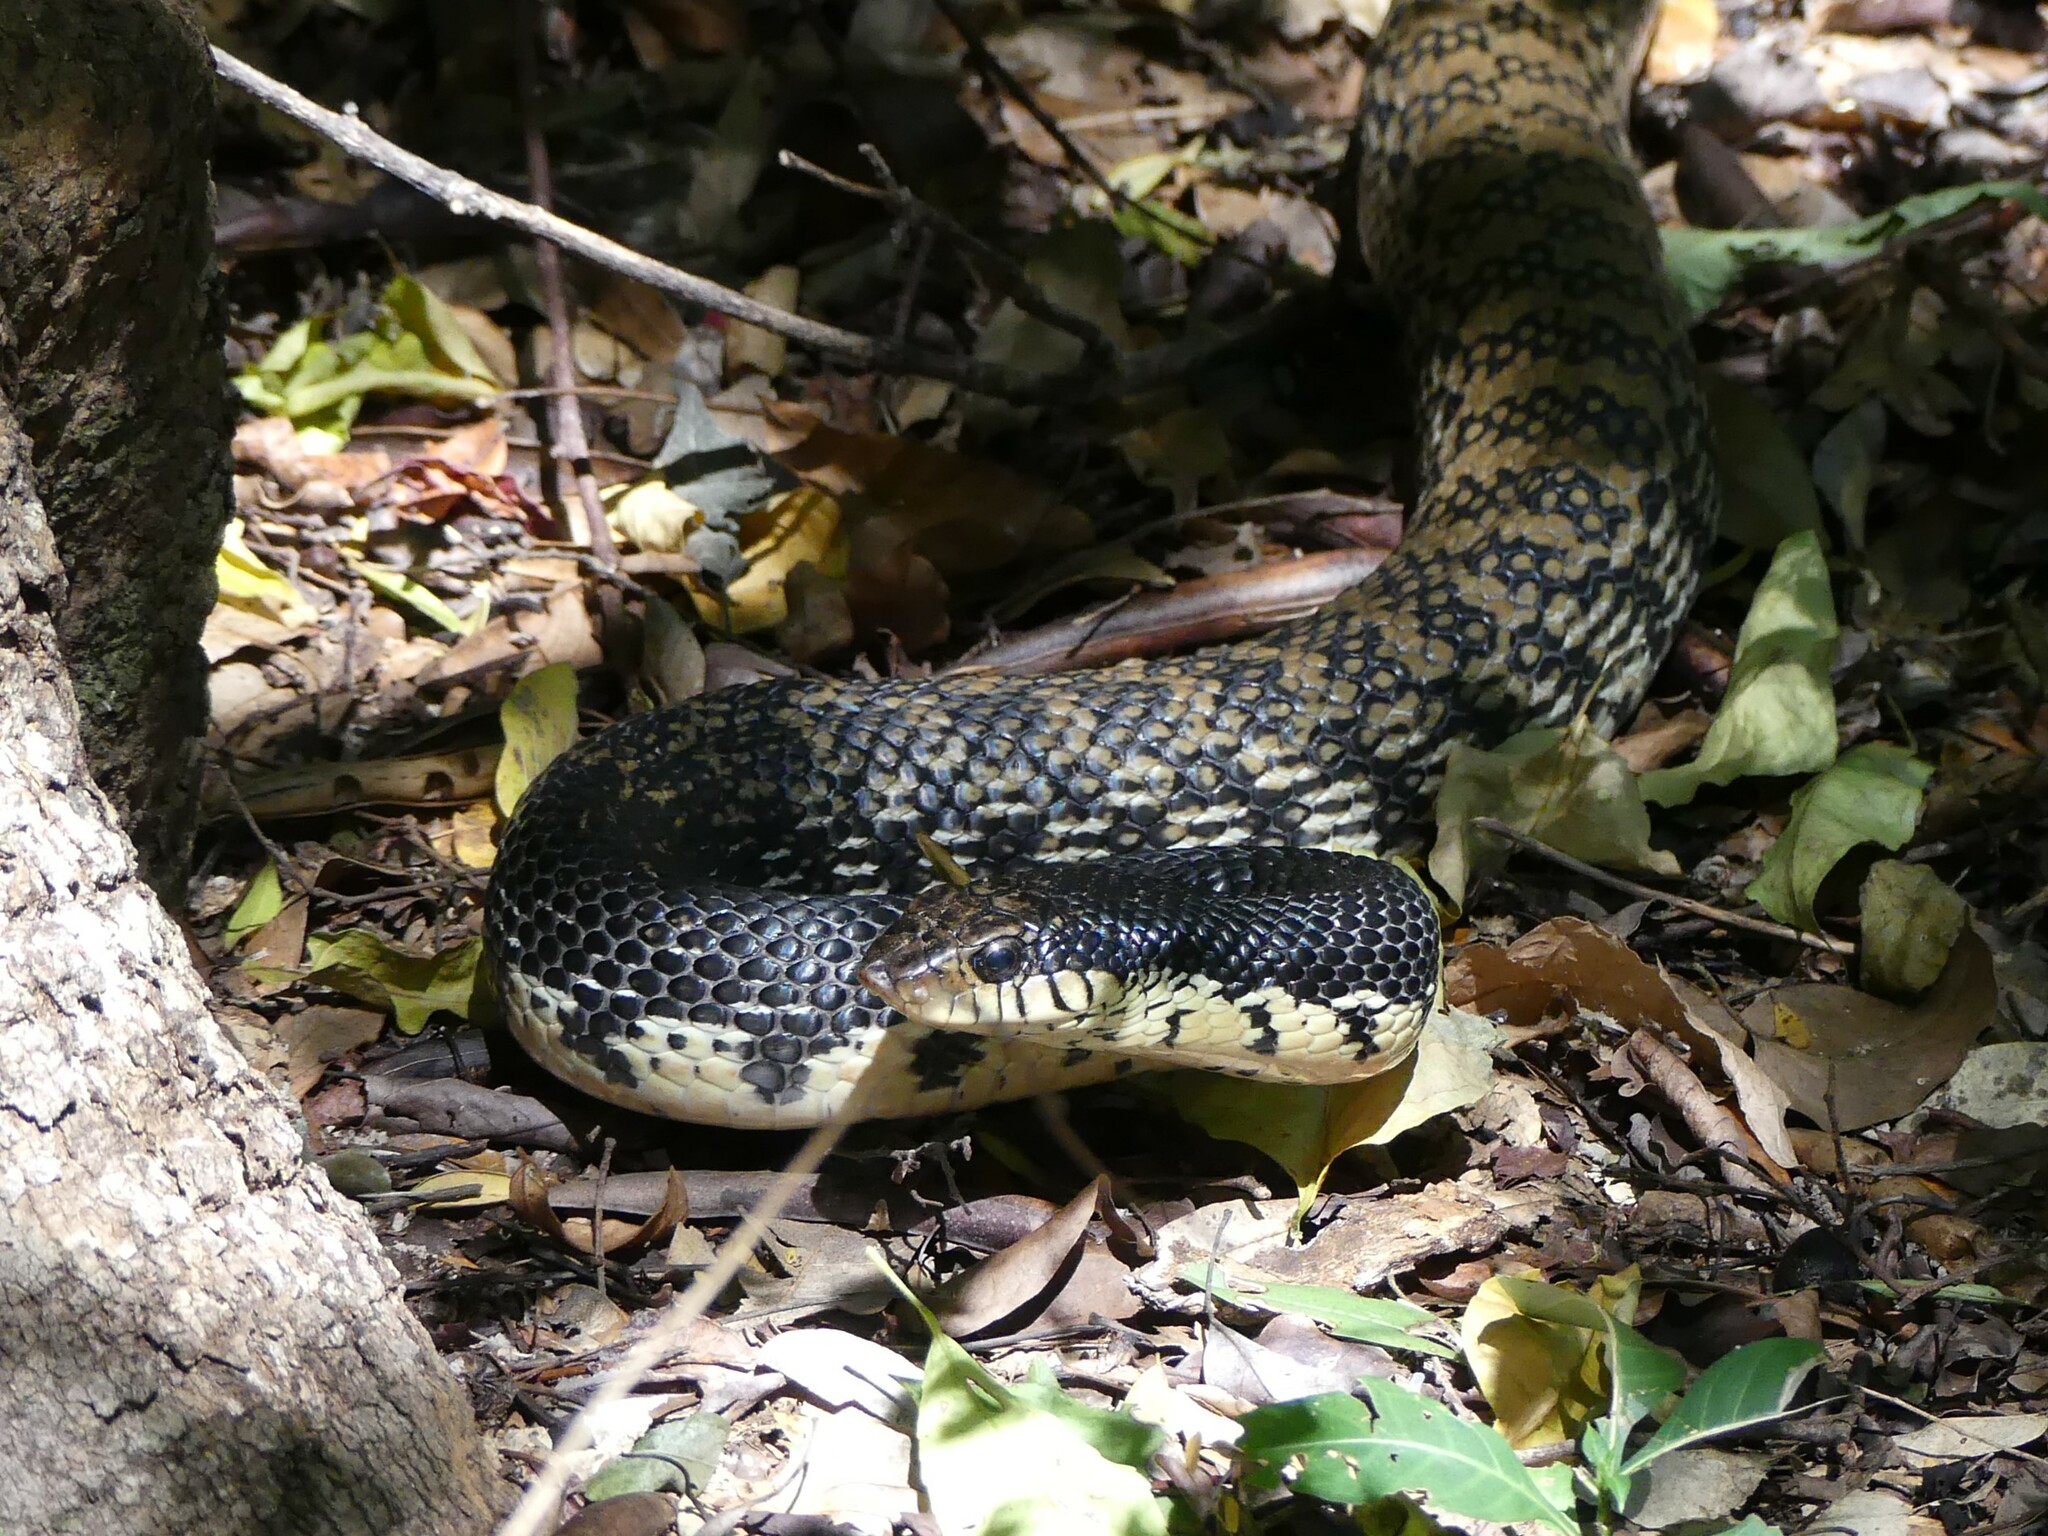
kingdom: Animalia
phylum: Chordata
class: Squamata
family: Pseudoxyrhophiidae
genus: Leioheterodon
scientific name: Leioheterodon madagascariensis
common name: Malagasy giant hognose snake
